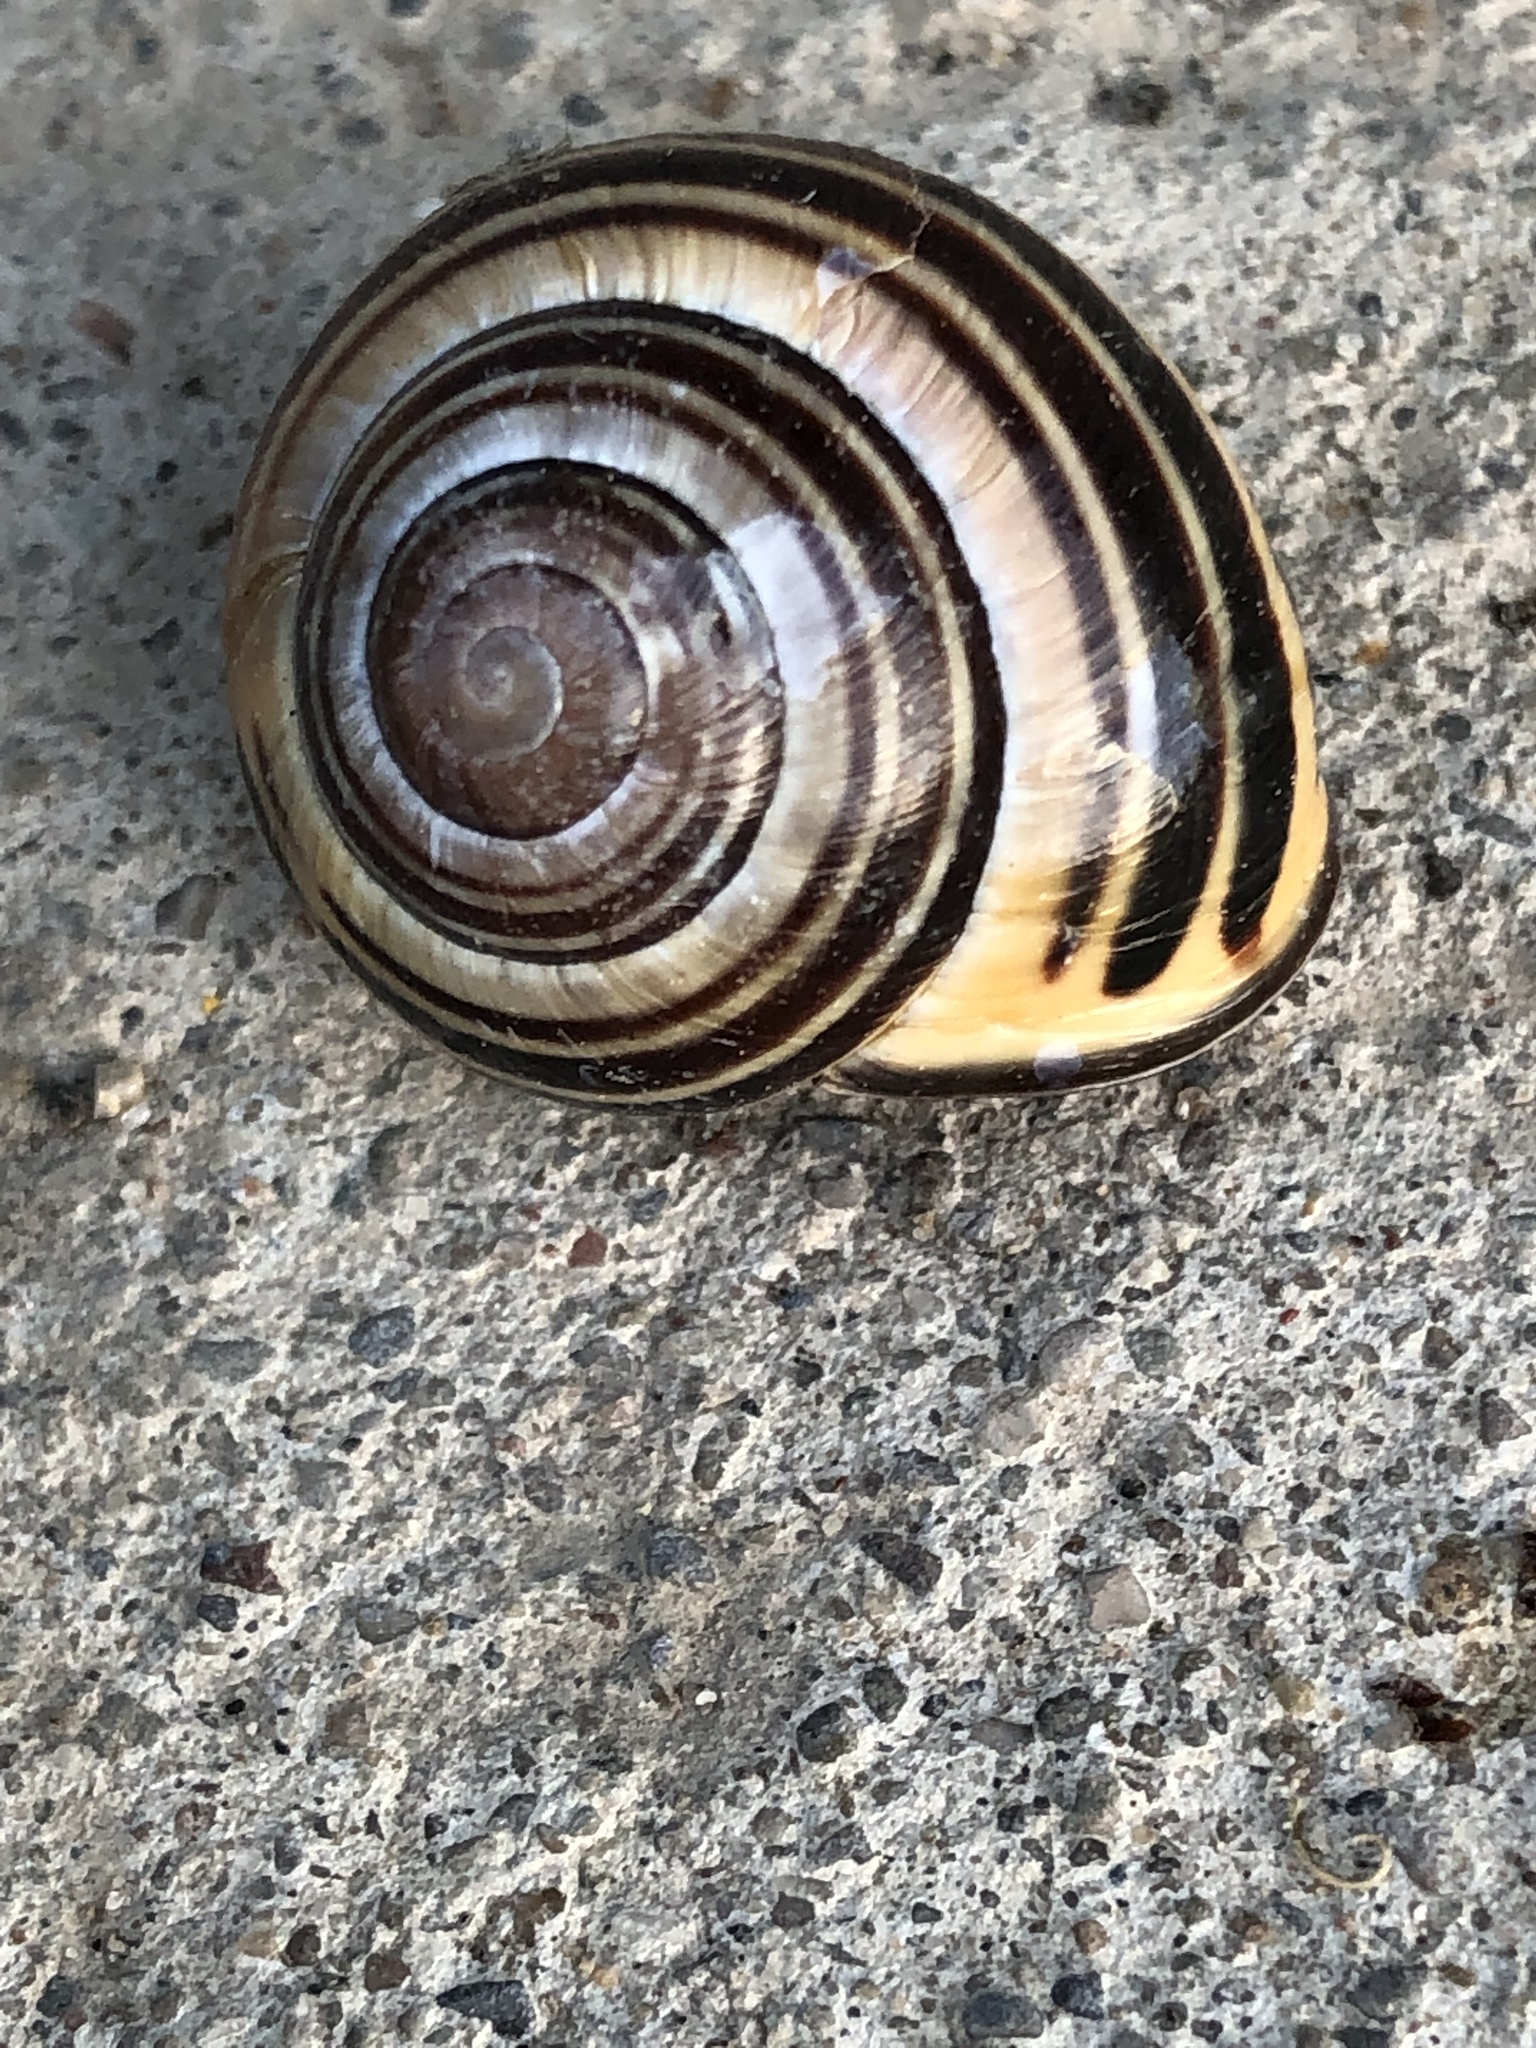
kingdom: Animalia
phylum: Mollusca
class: Gastropoda
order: Stylommatophora
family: Helicidae
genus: Cepaea
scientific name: Cepaea nemoralis
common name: Grovesnail
